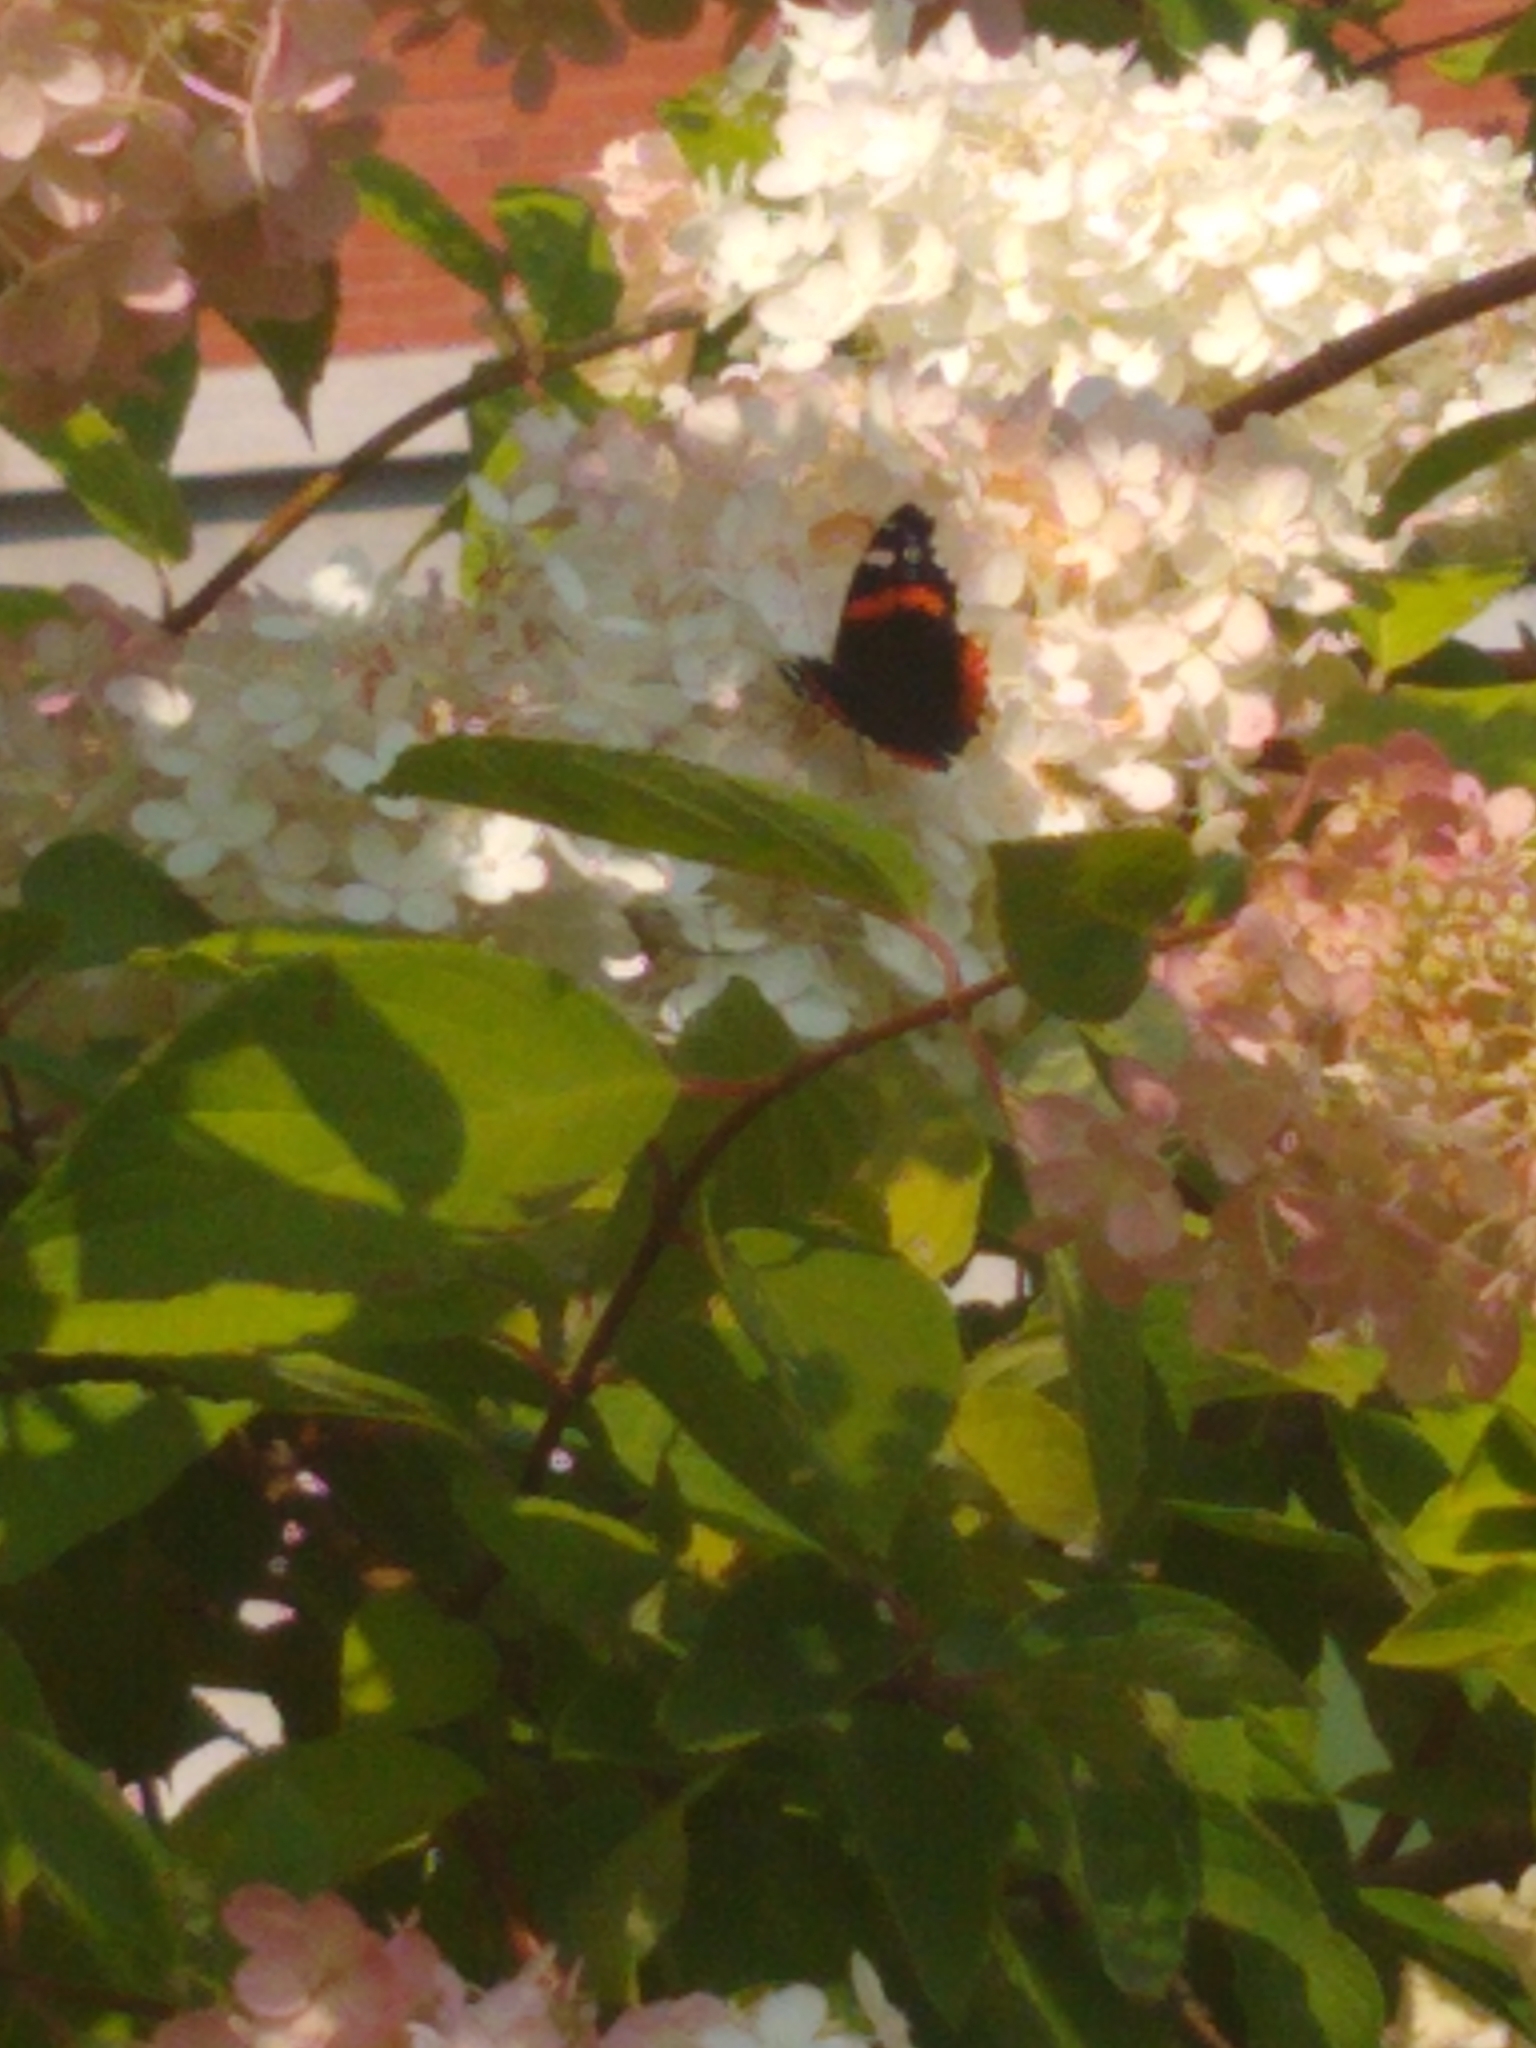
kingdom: Animalia
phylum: Arthropoda
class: Insecta
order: Lepidoptera
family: Nymphalidae
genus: Vanessa
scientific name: Vanessa atalanta
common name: Red admiral
